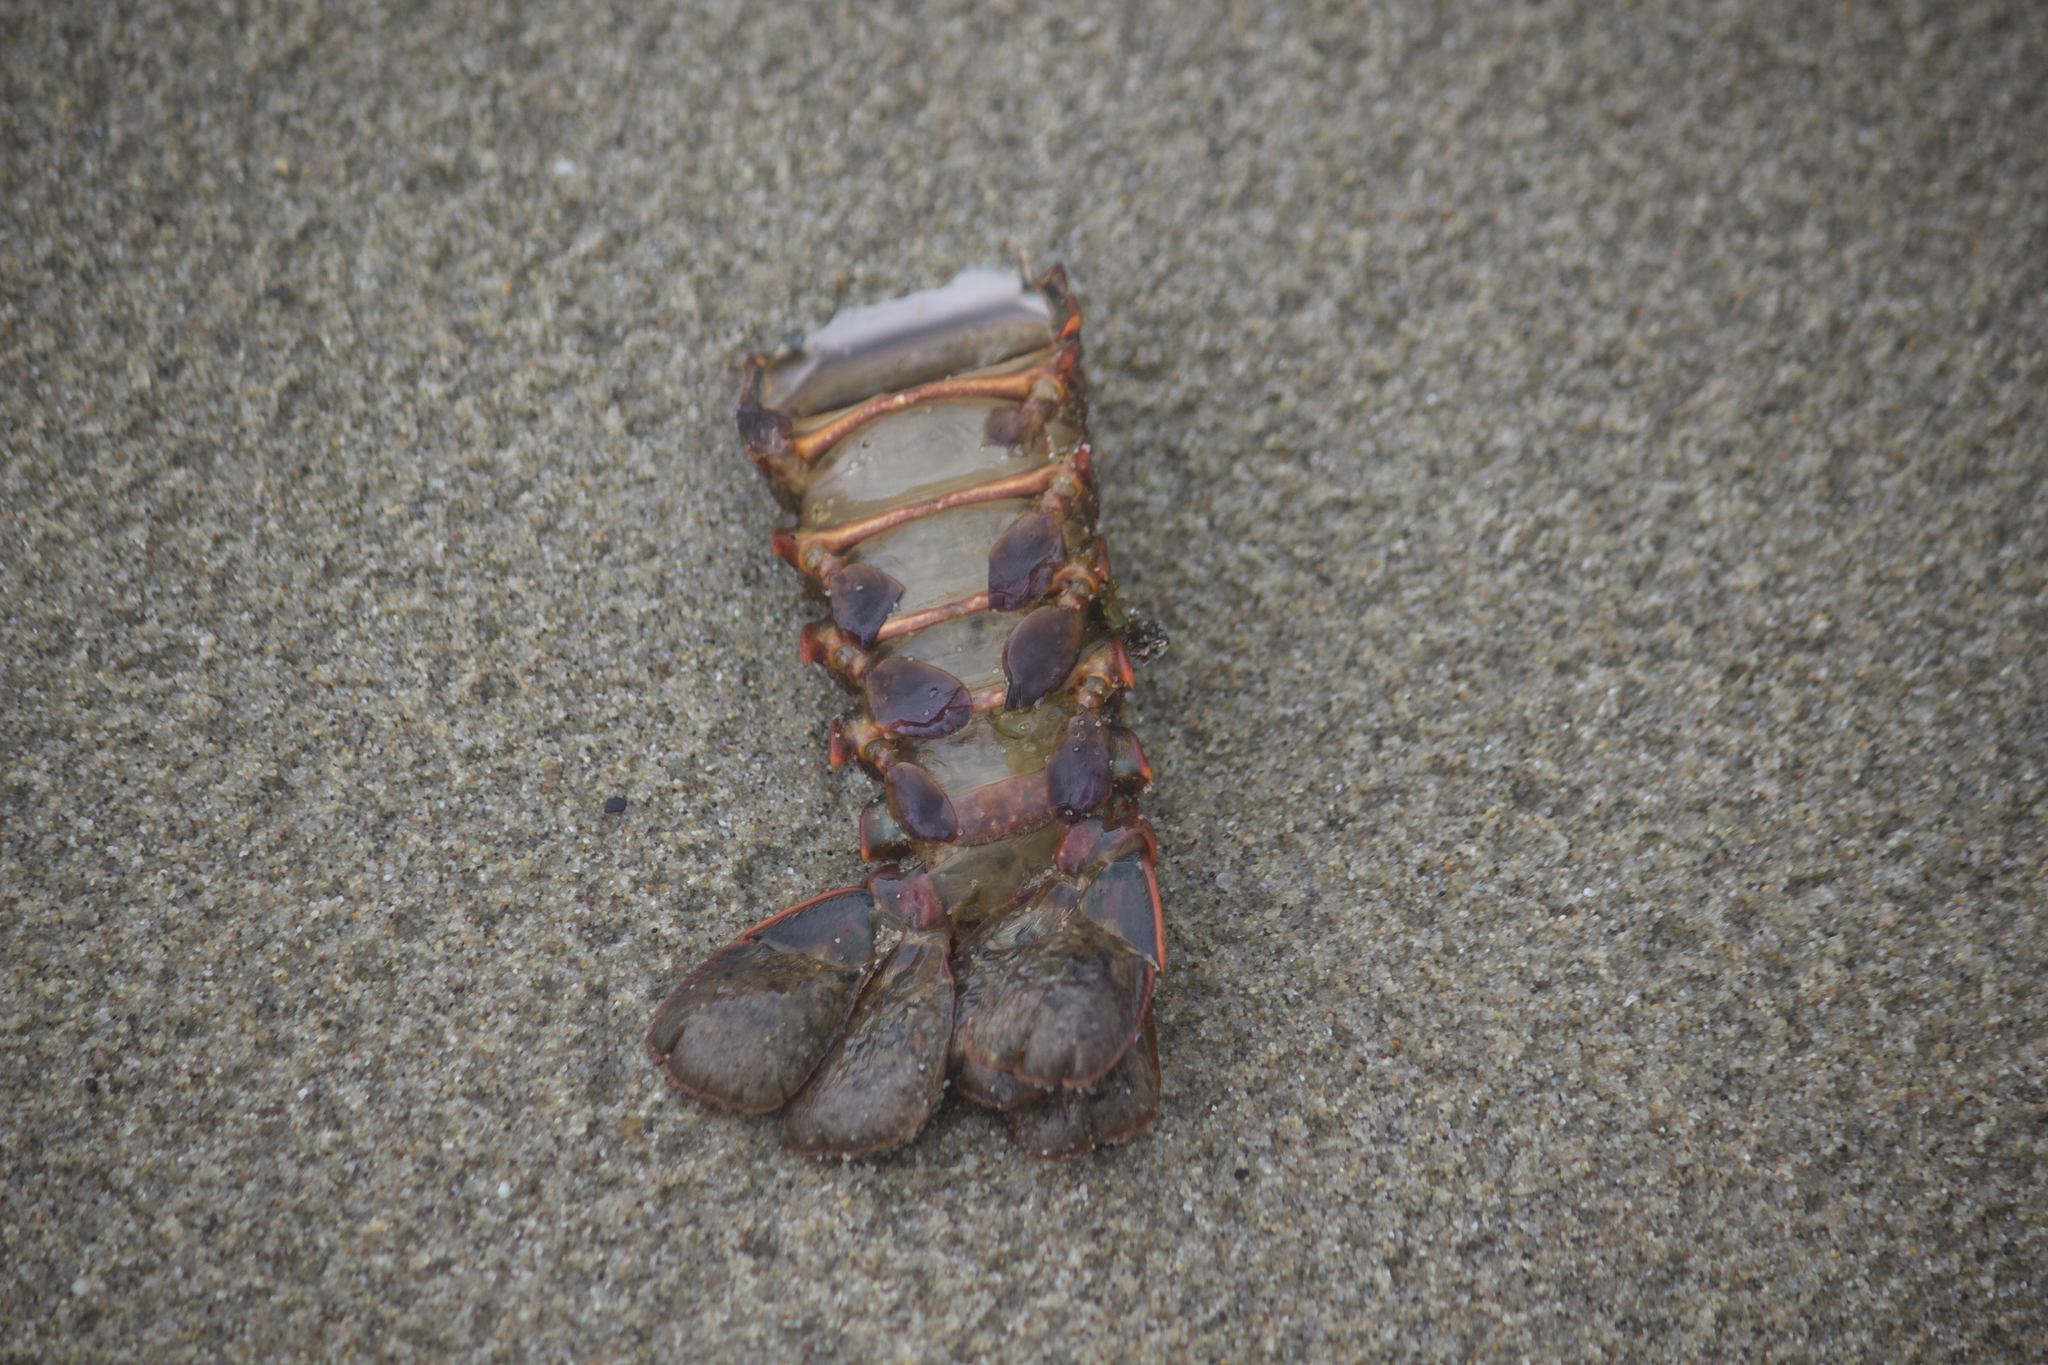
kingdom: Animalia
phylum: Arthropoda
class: Malacostraca
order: Decapoda
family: Palinuridae
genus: Panulirus
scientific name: Panulirus interruptus
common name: California spiny lobster
